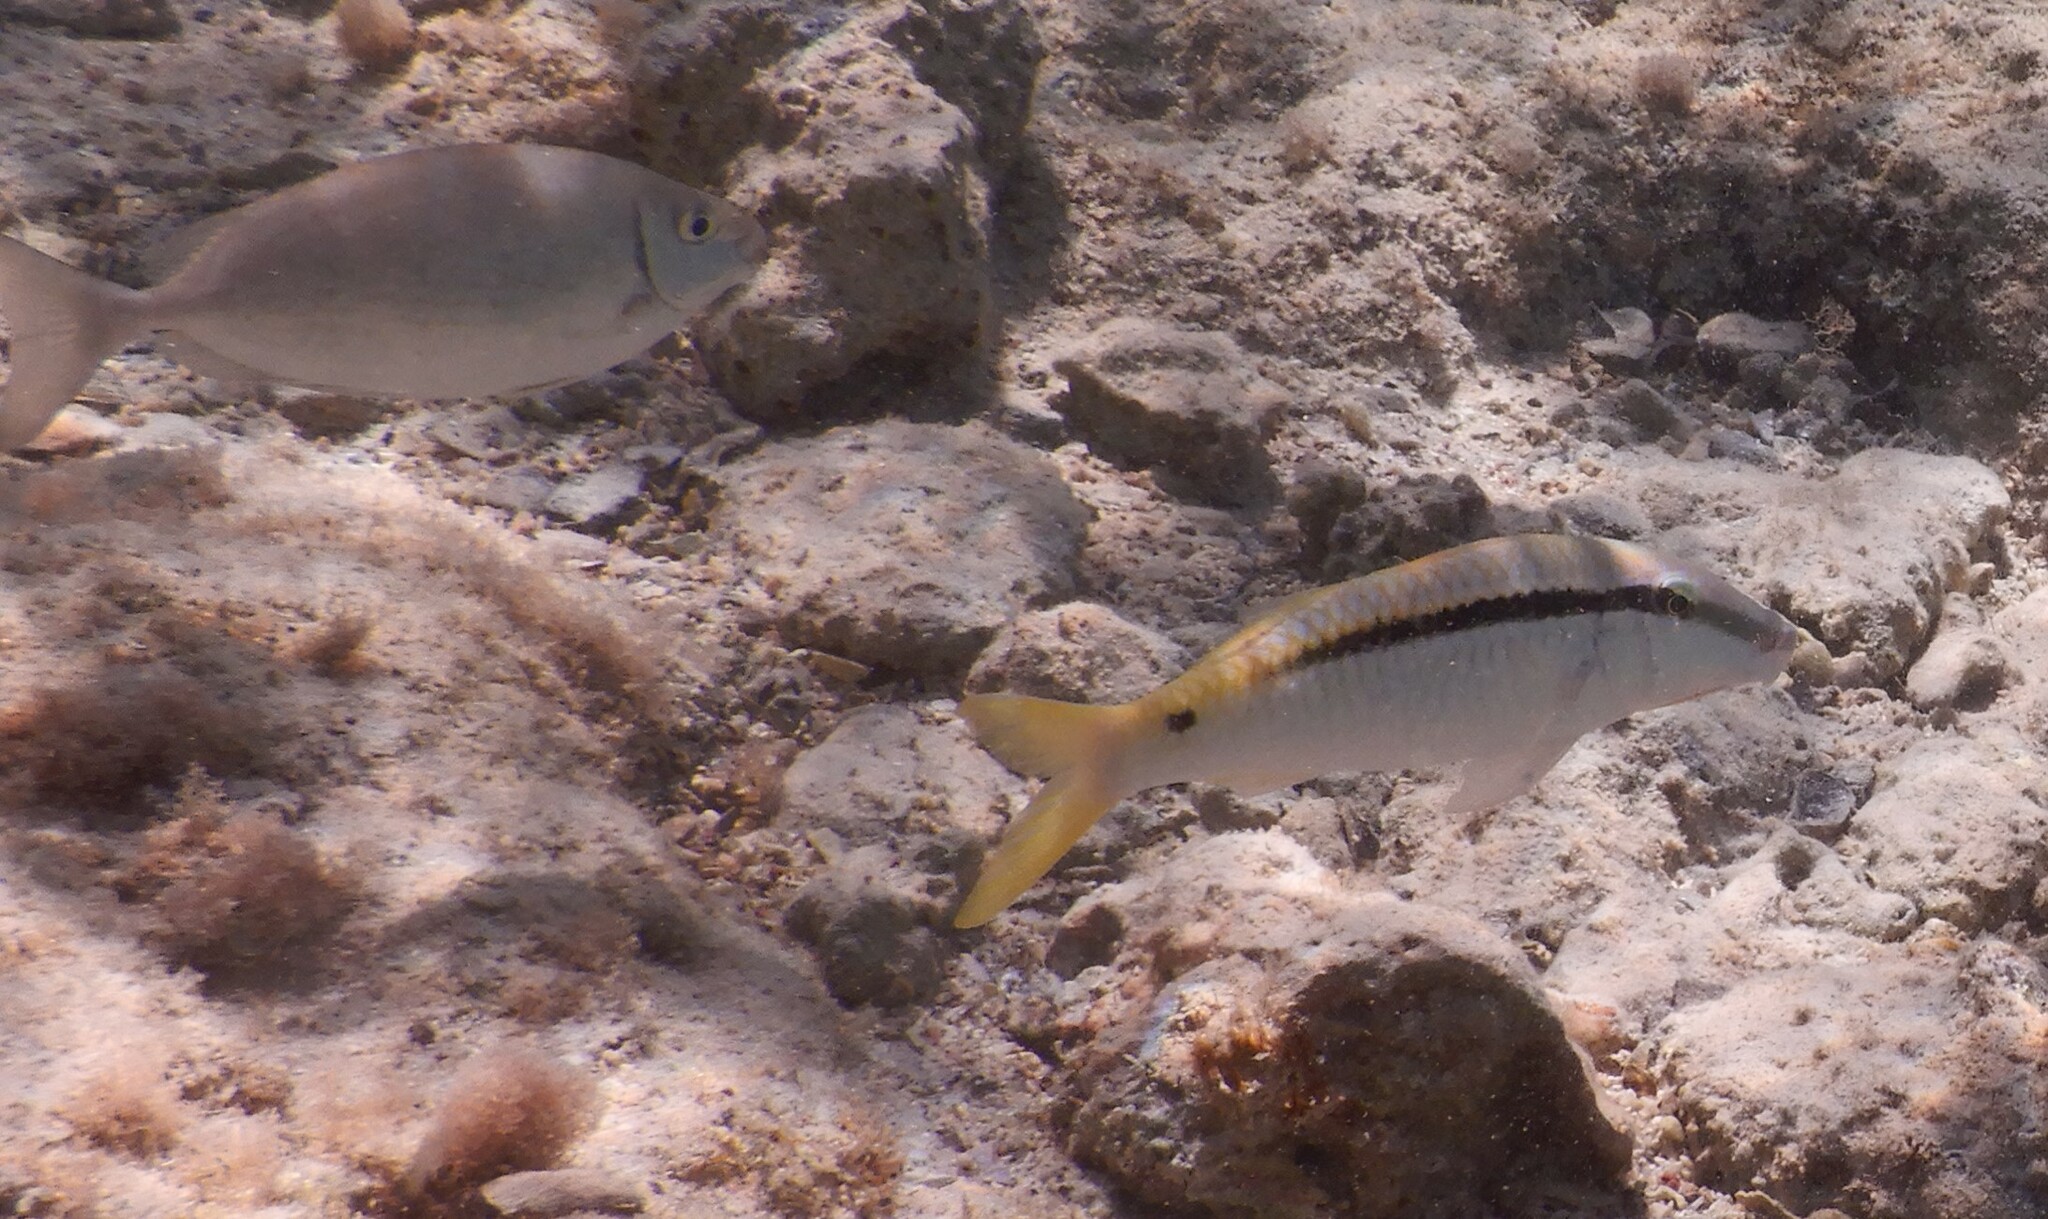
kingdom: Animalia
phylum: Chordata
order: Perciformes
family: Mullidae
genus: Parupeneus
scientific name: Parupeneus forsskali
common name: Red sea goatfish
